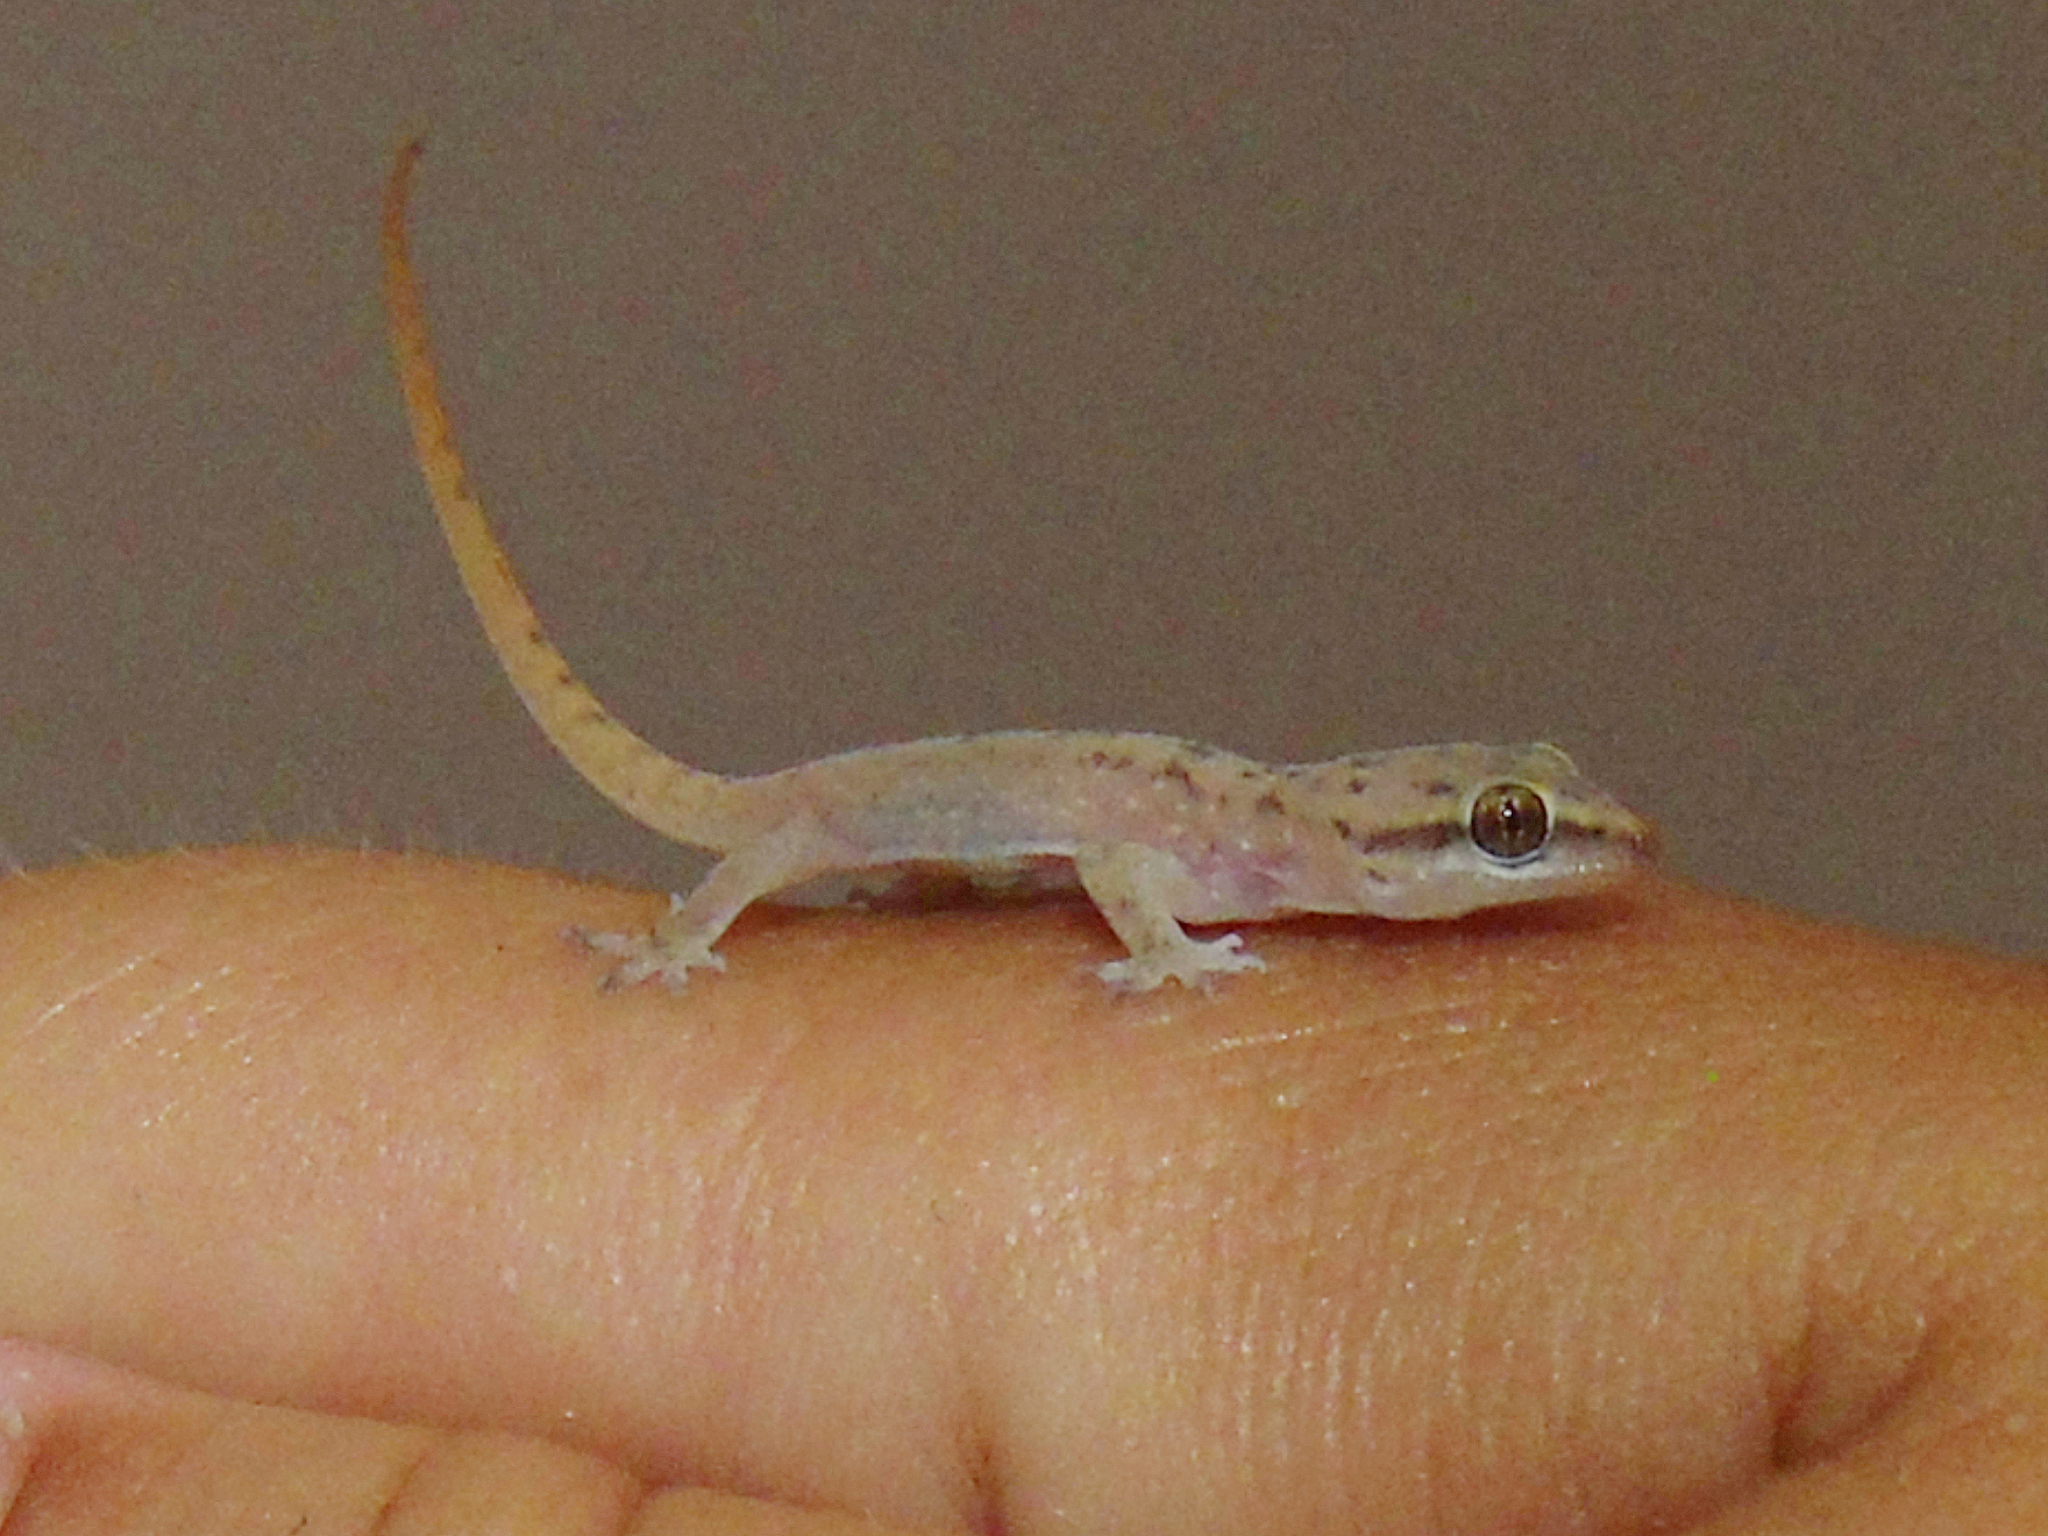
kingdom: Animalia
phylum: Chordata
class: Squamata
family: Gekkonidae
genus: Hemidactylus
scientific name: Hemidactylus persicus
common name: Persian gecko
